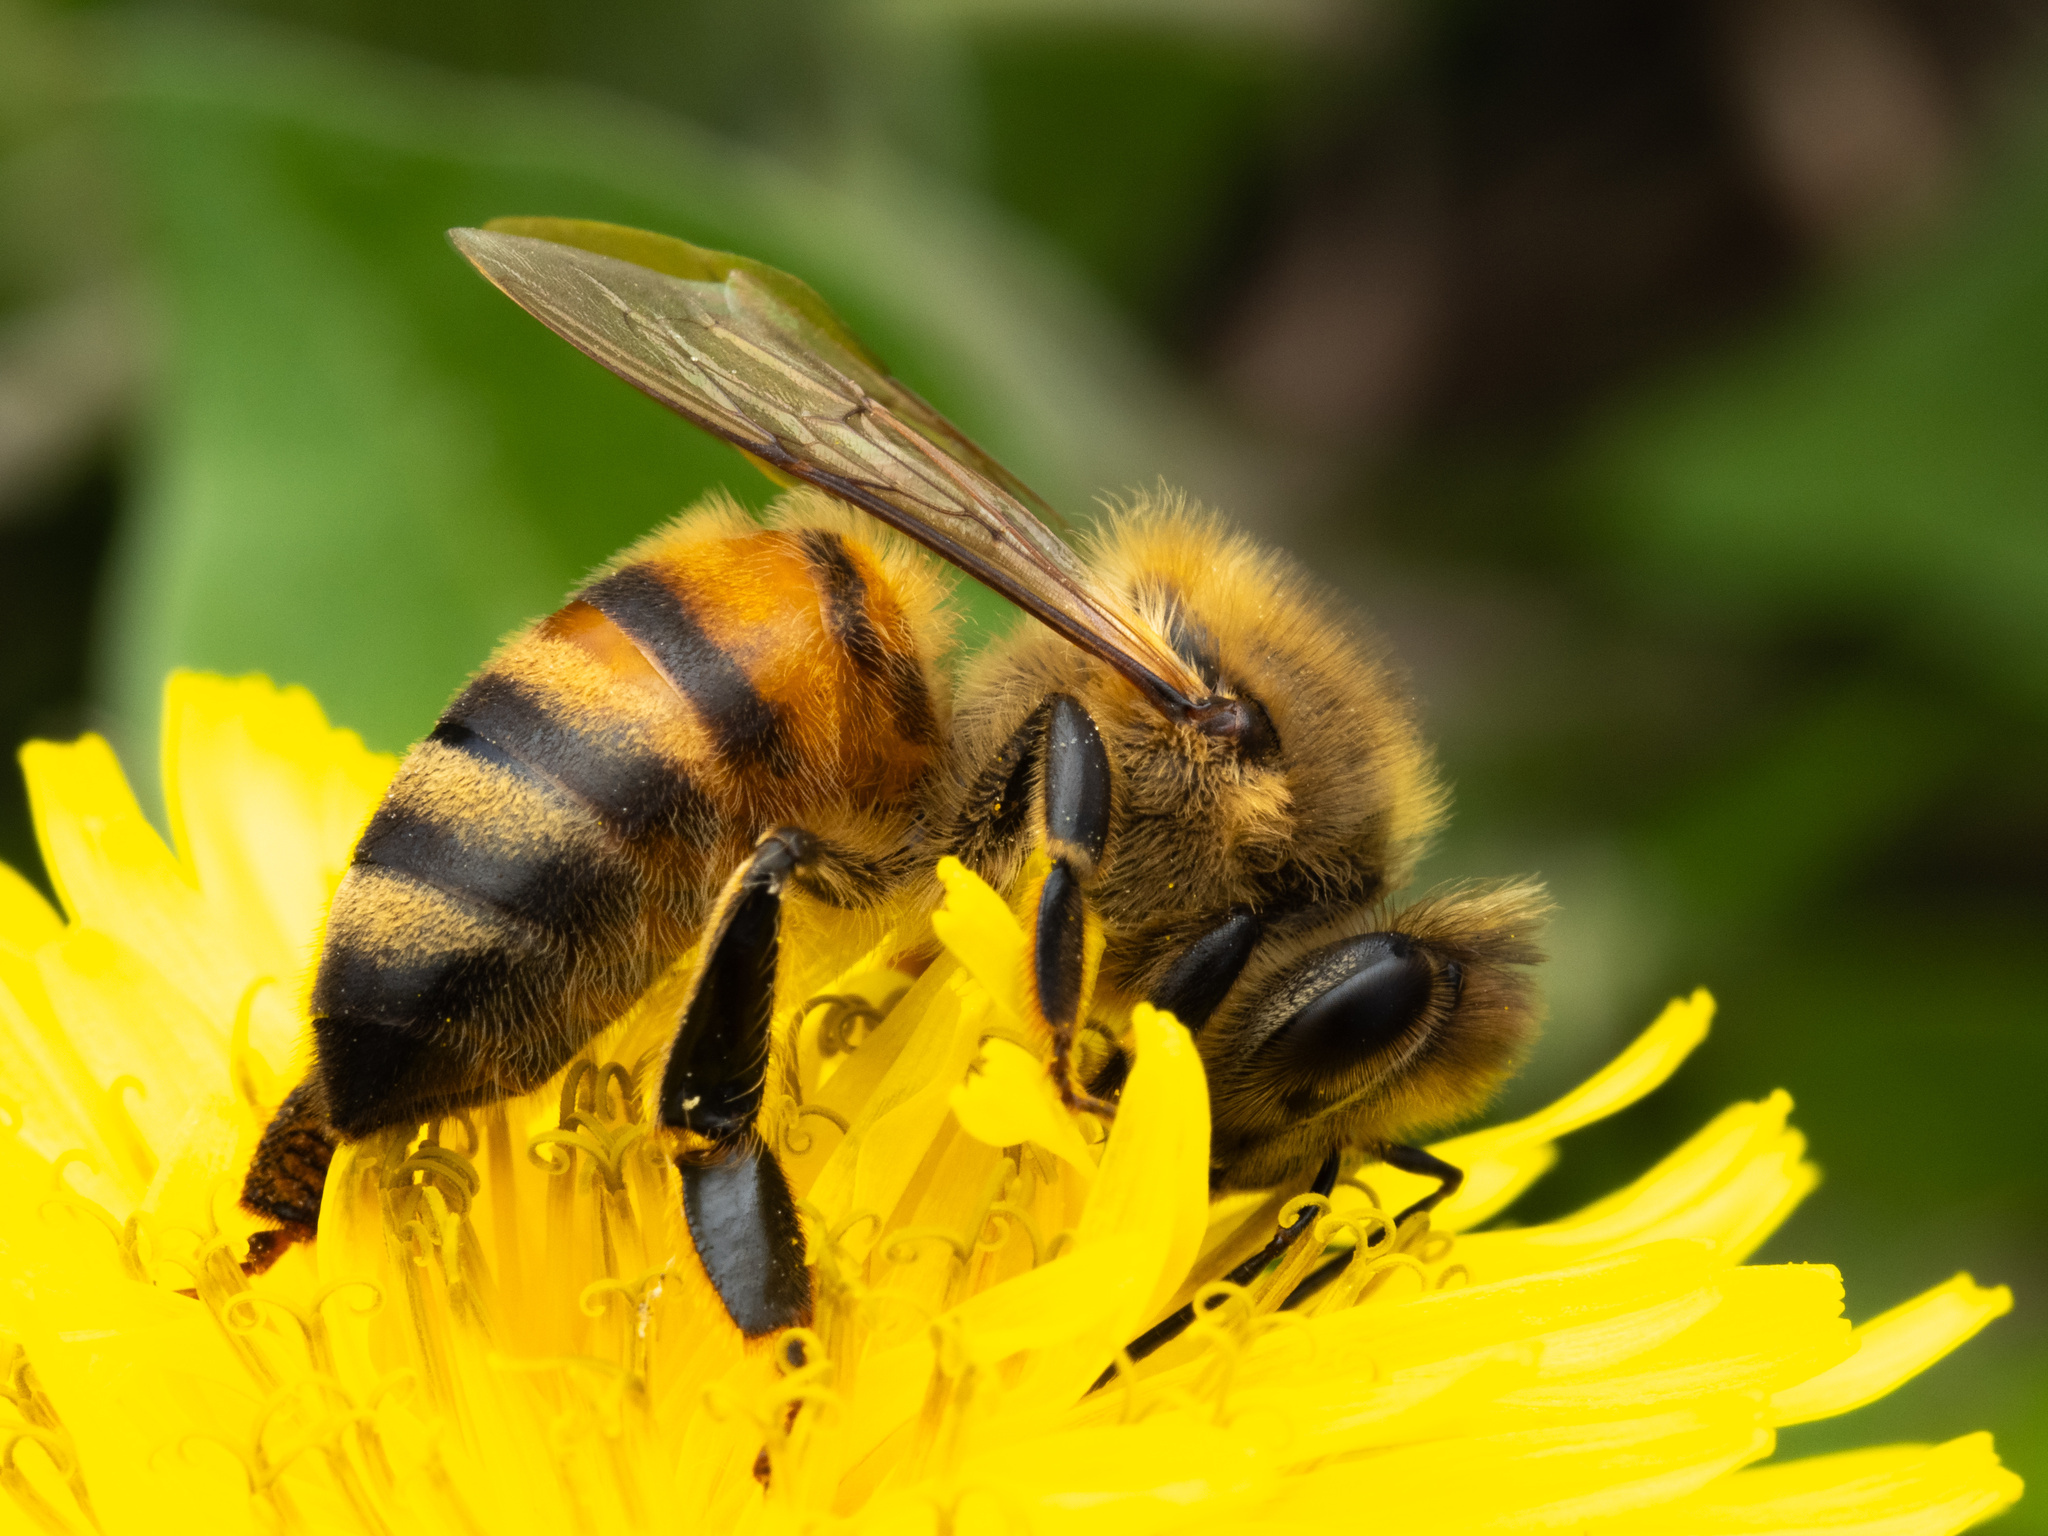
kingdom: Animalia
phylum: Arthropoda
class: Insecta
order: Hymenoptera
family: Apidae
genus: Apis
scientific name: Apis mellifera
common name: Honey bee
